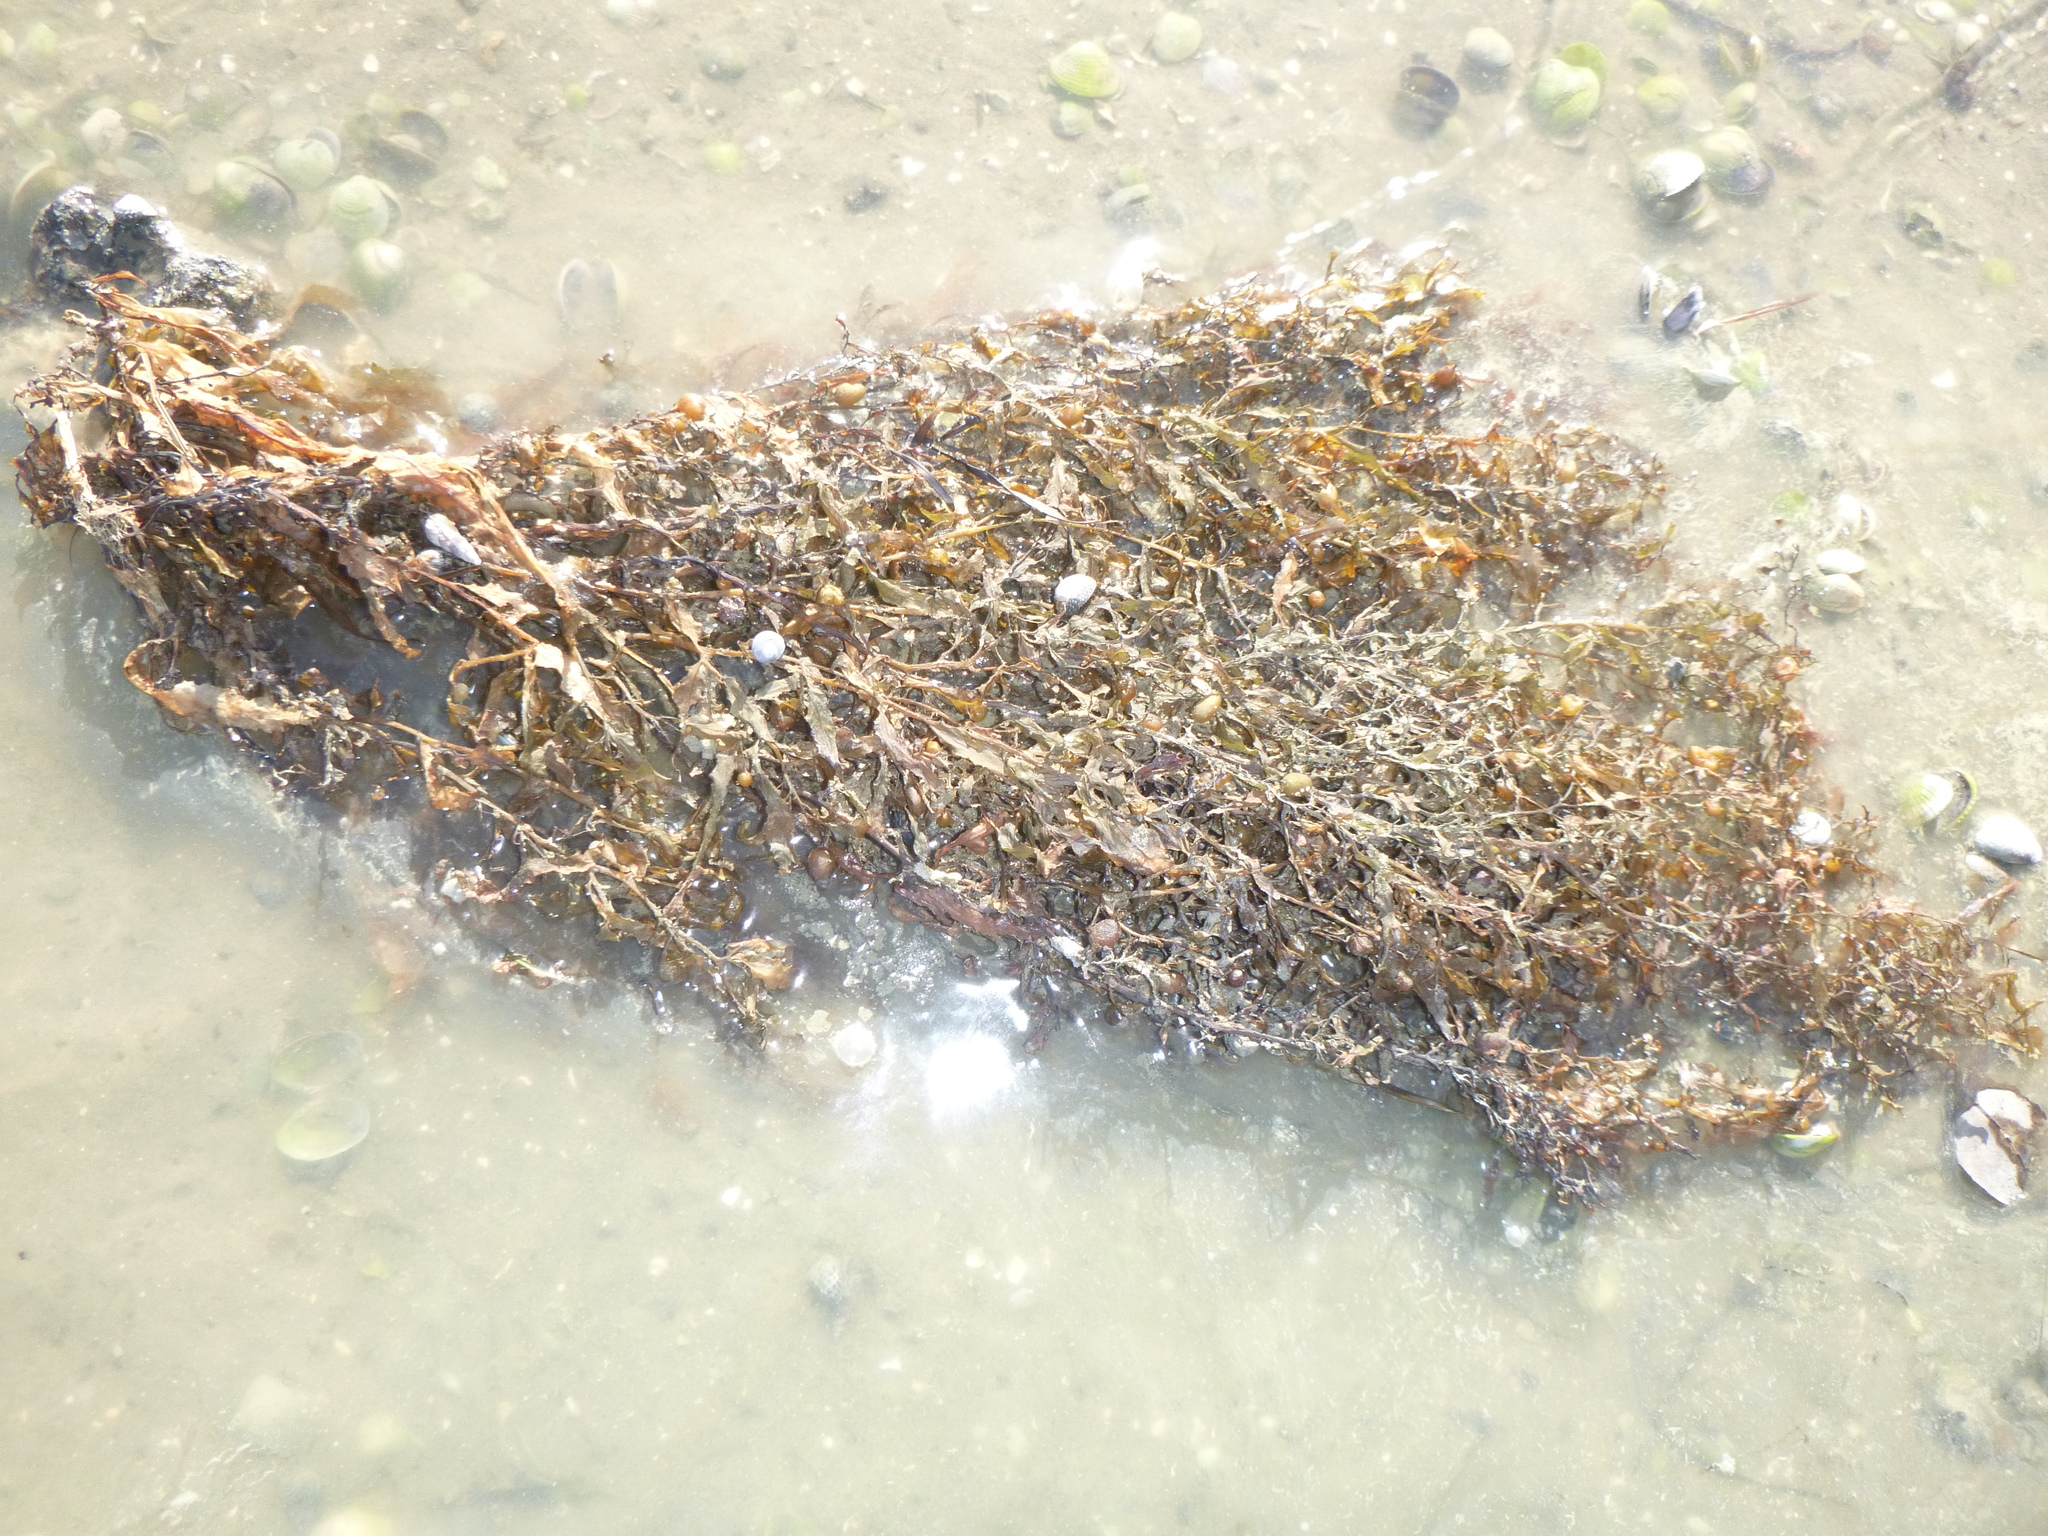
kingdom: Chromista
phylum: Ochrophyta
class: Phaeophyceae
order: Fucales
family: Sargassaceae
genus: Sargassum
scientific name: Sargassum sinclairii
